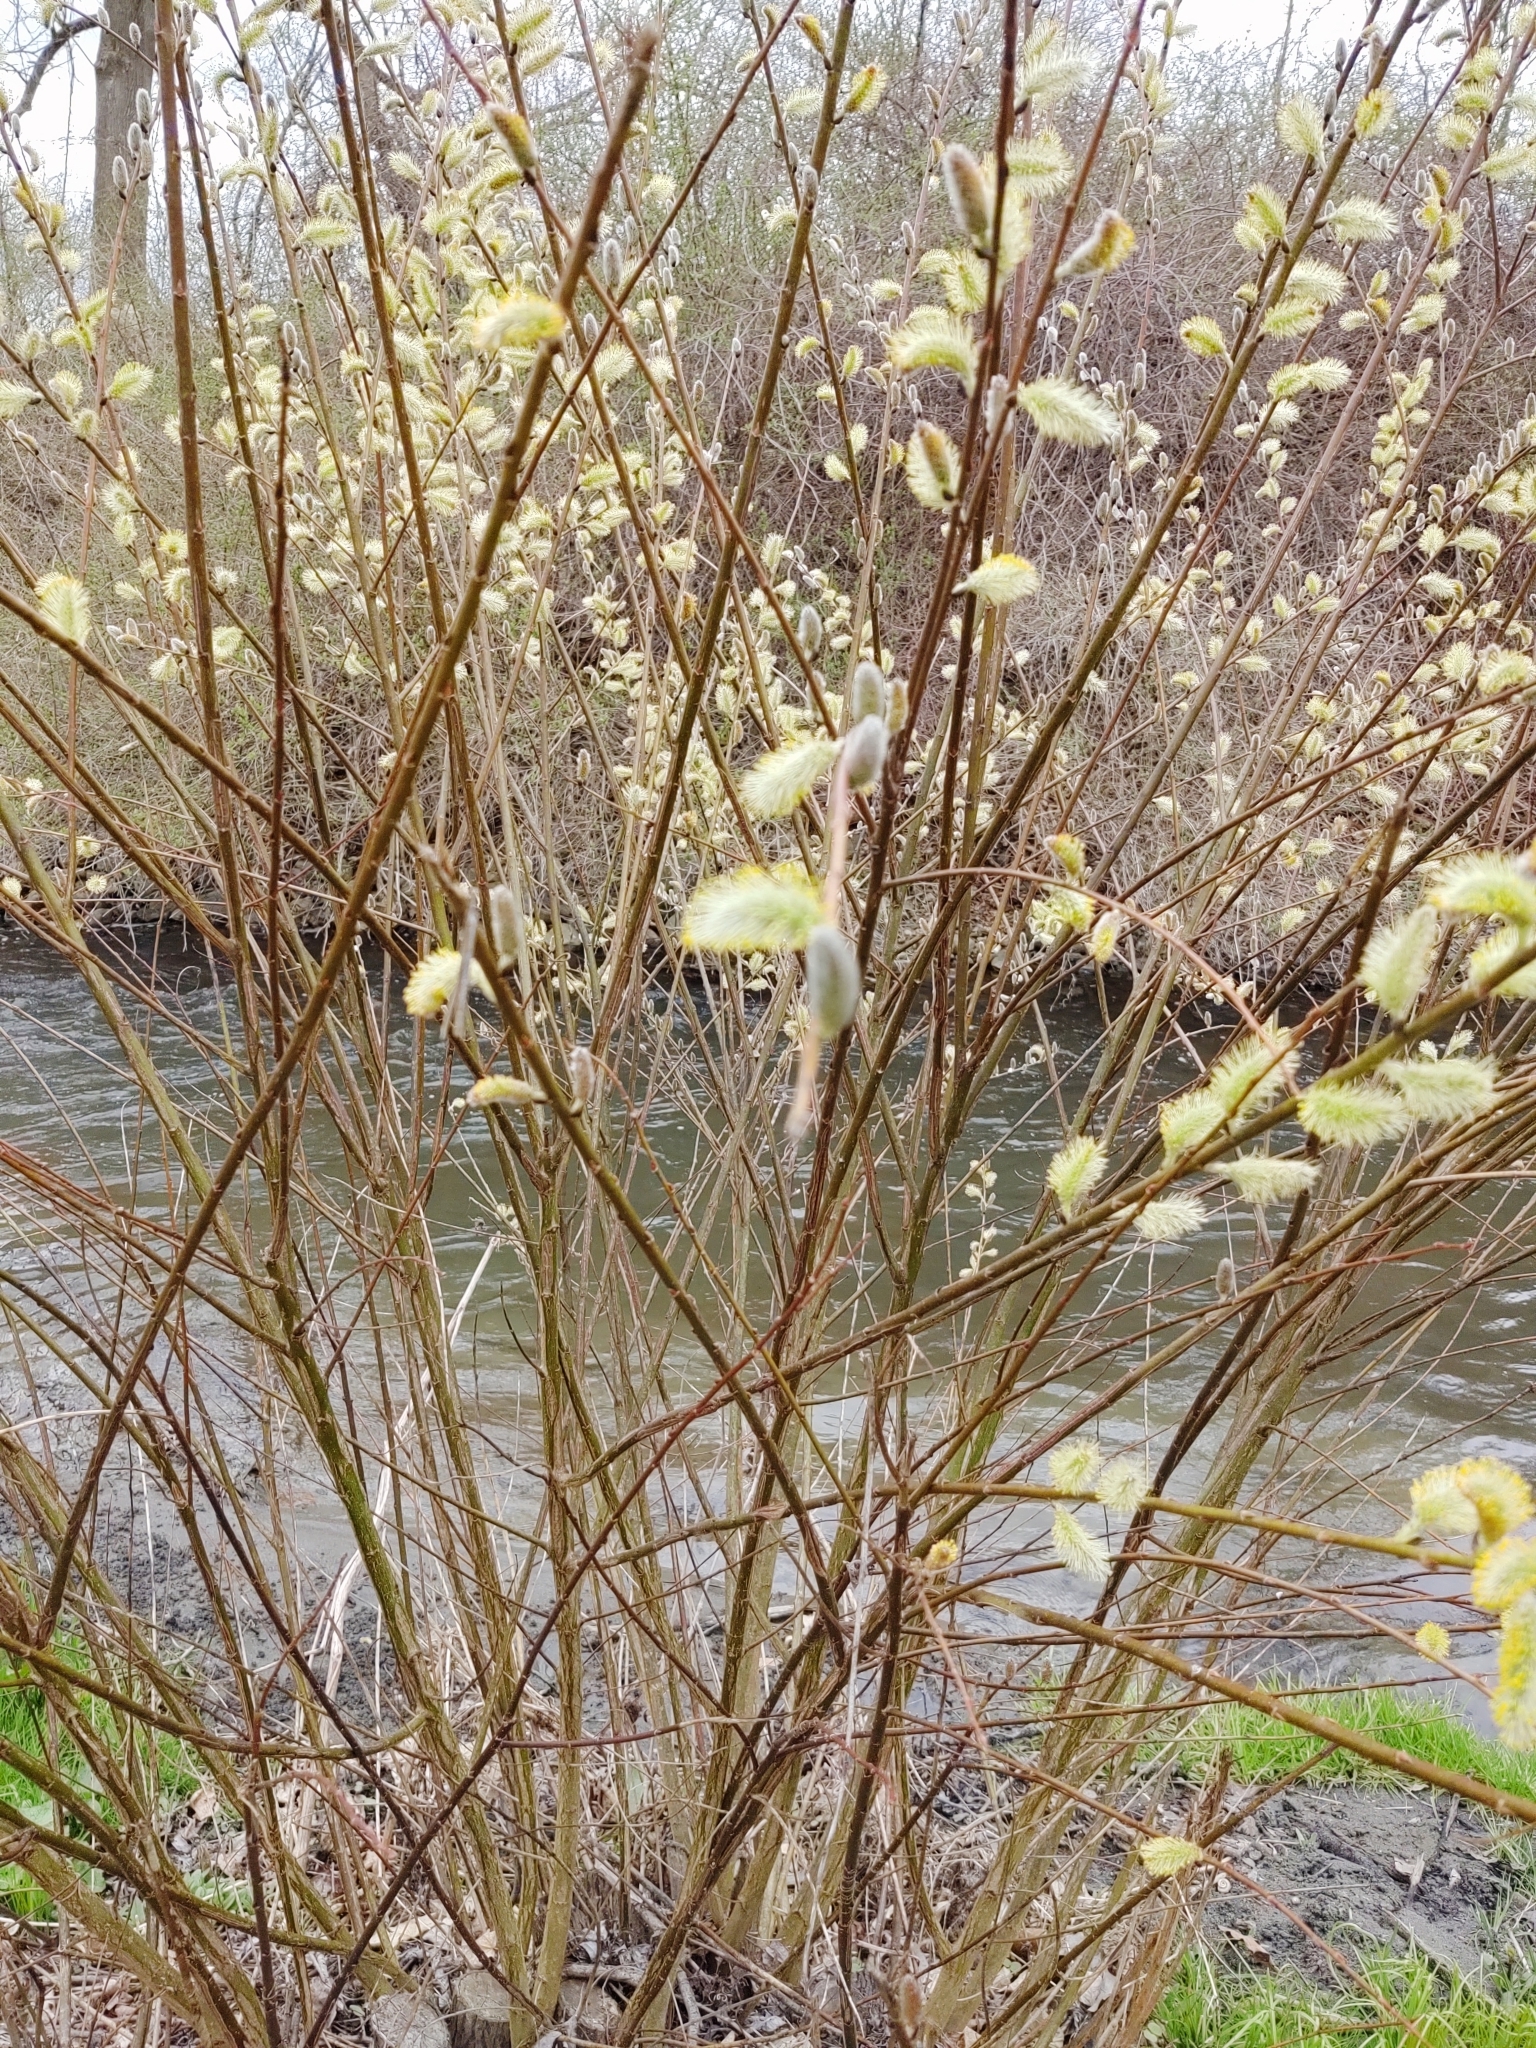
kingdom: Plantae
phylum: Tracheophyta
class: Magnoliopsida
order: Malpighiales
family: Salicaceae
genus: Salix
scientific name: Salix discolor
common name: Glaucous willow
